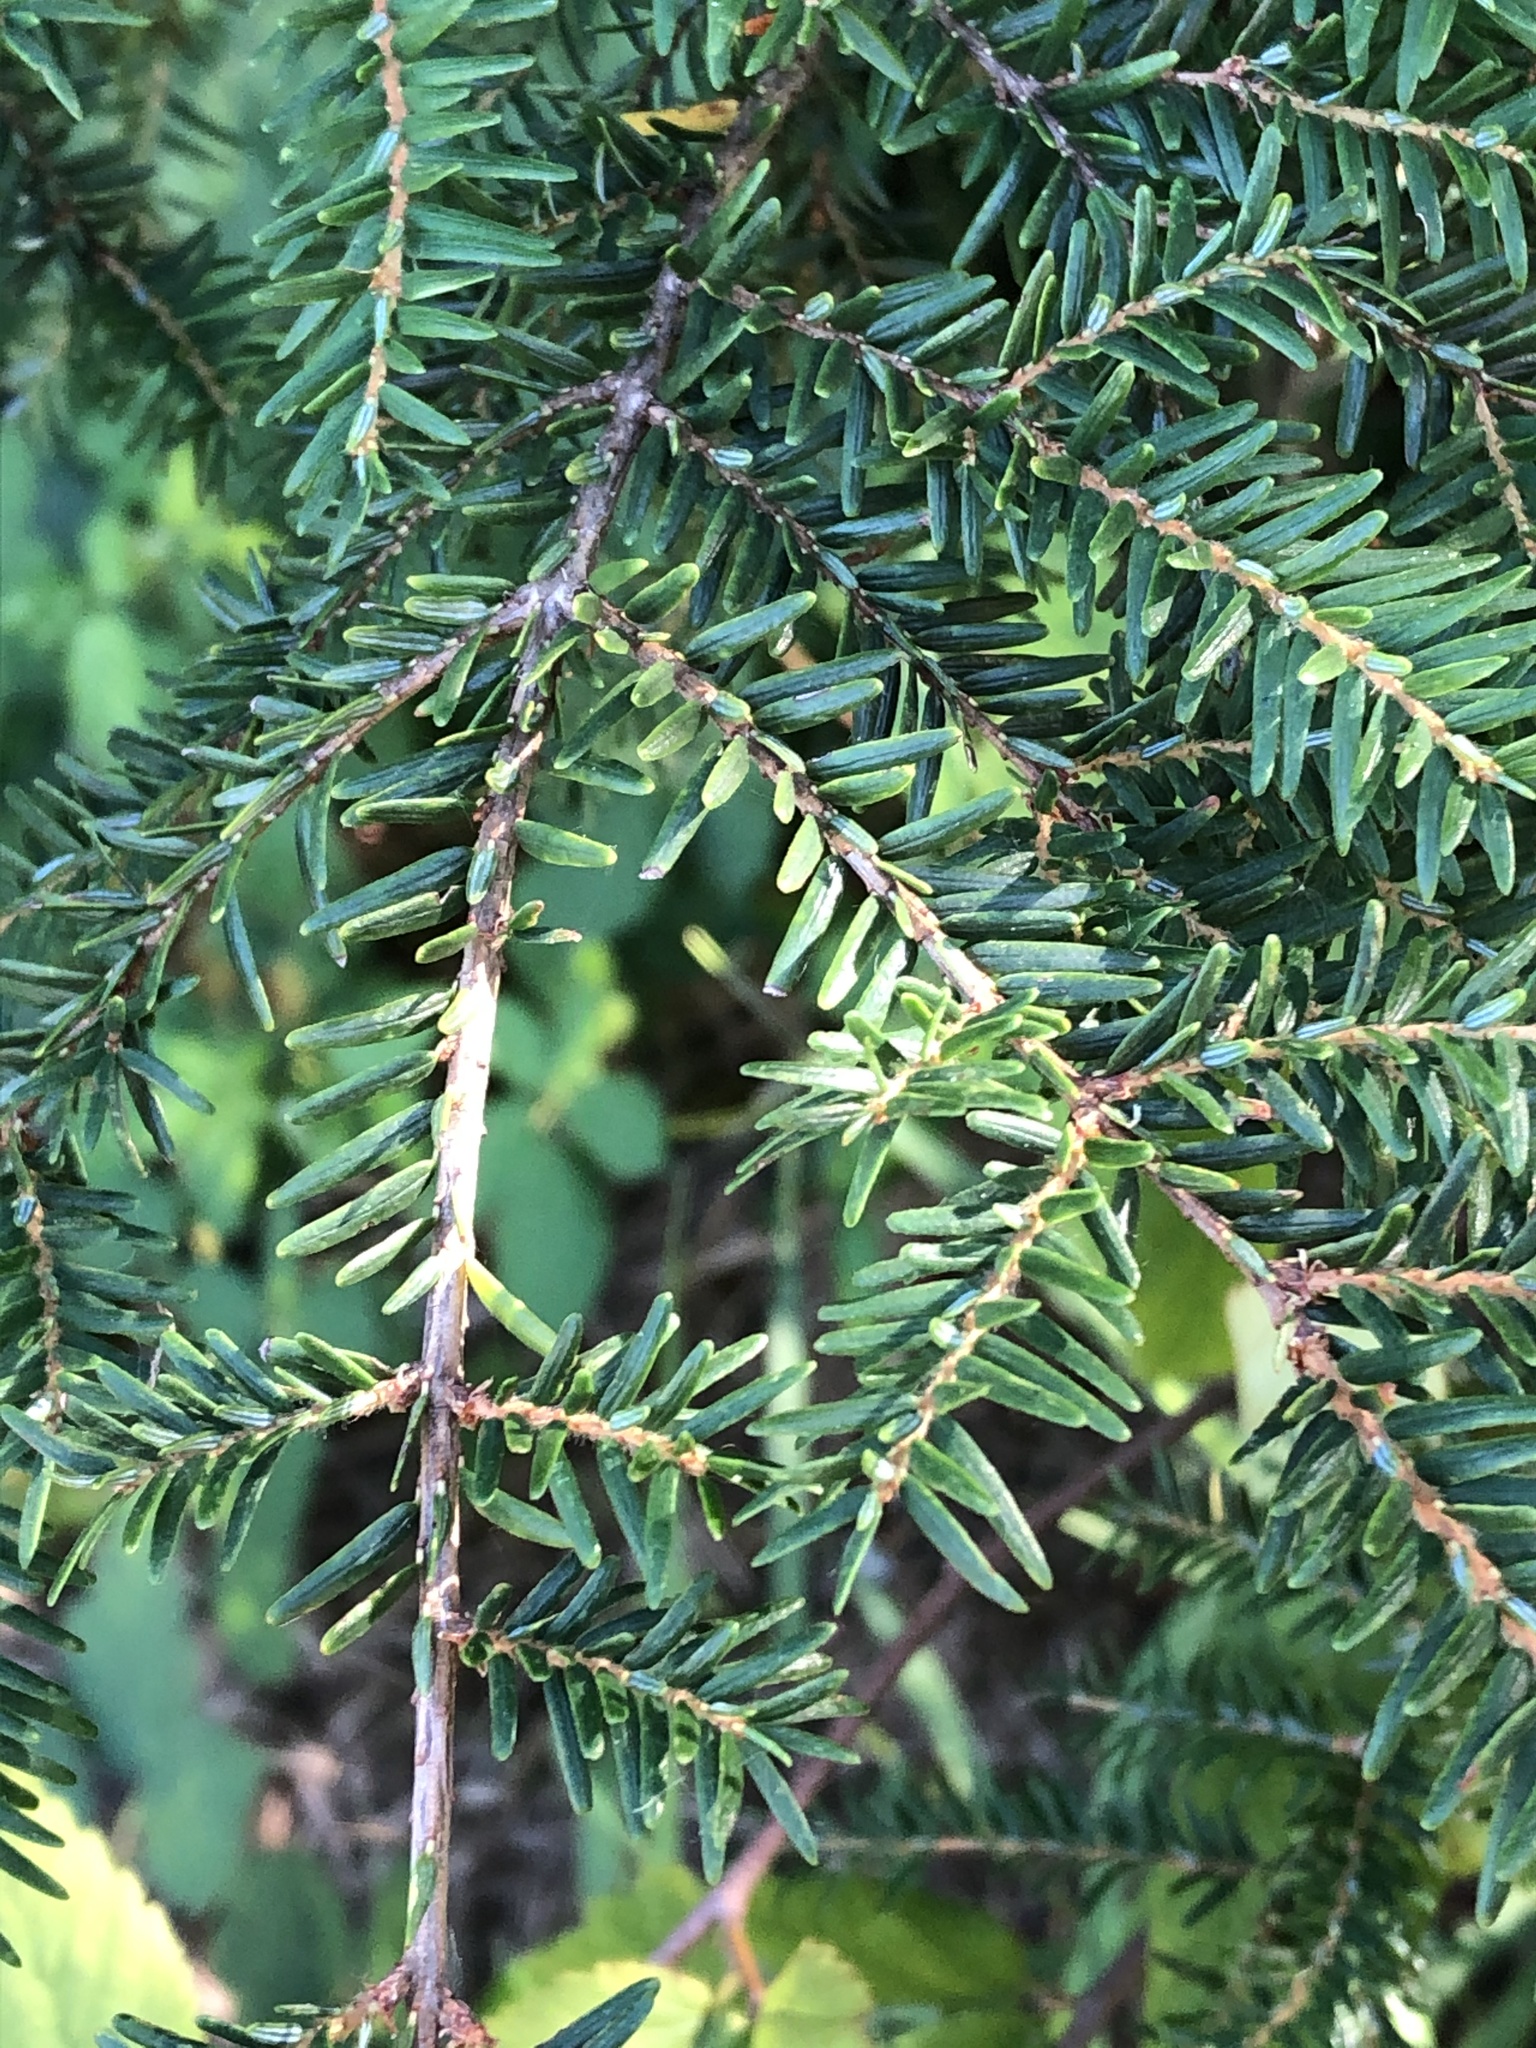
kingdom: Plantae
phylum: Tracheophyta
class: Pinopsida
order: Pinales
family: Pinaceae
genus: Tsuga
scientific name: Tsuga heterophylla
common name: Western hemlock
